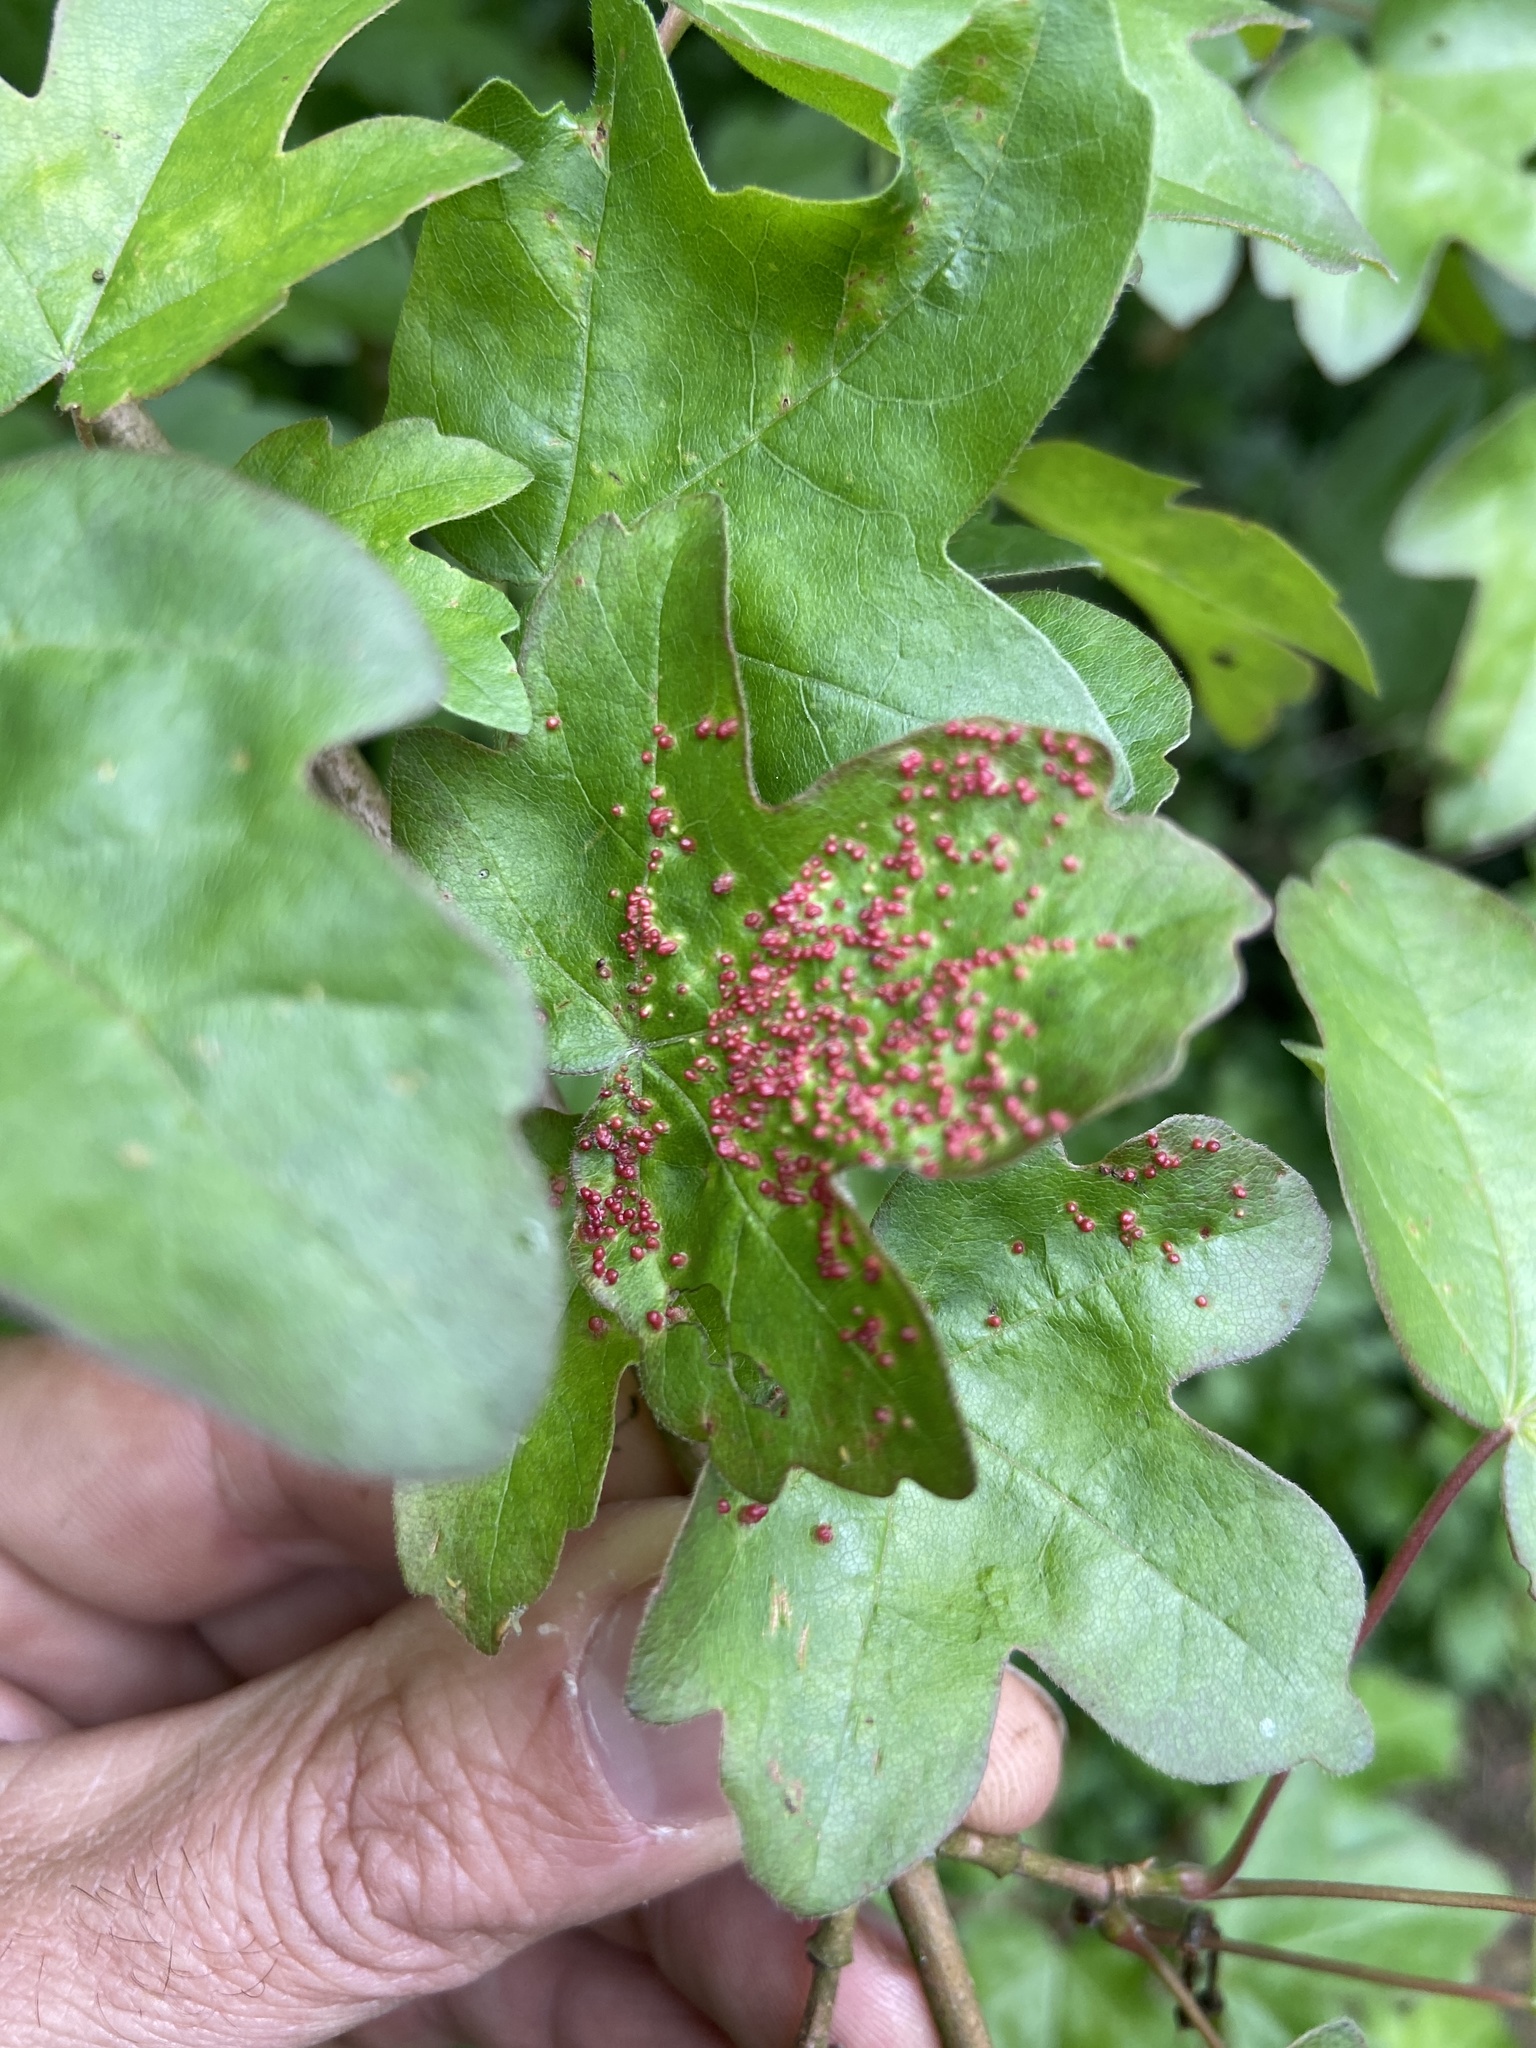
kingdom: Animalia
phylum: Arthropoda
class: Arachnida
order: Trombidiformes
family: Eriophyidae
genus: Aceria
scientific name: Aceria myriadeum
